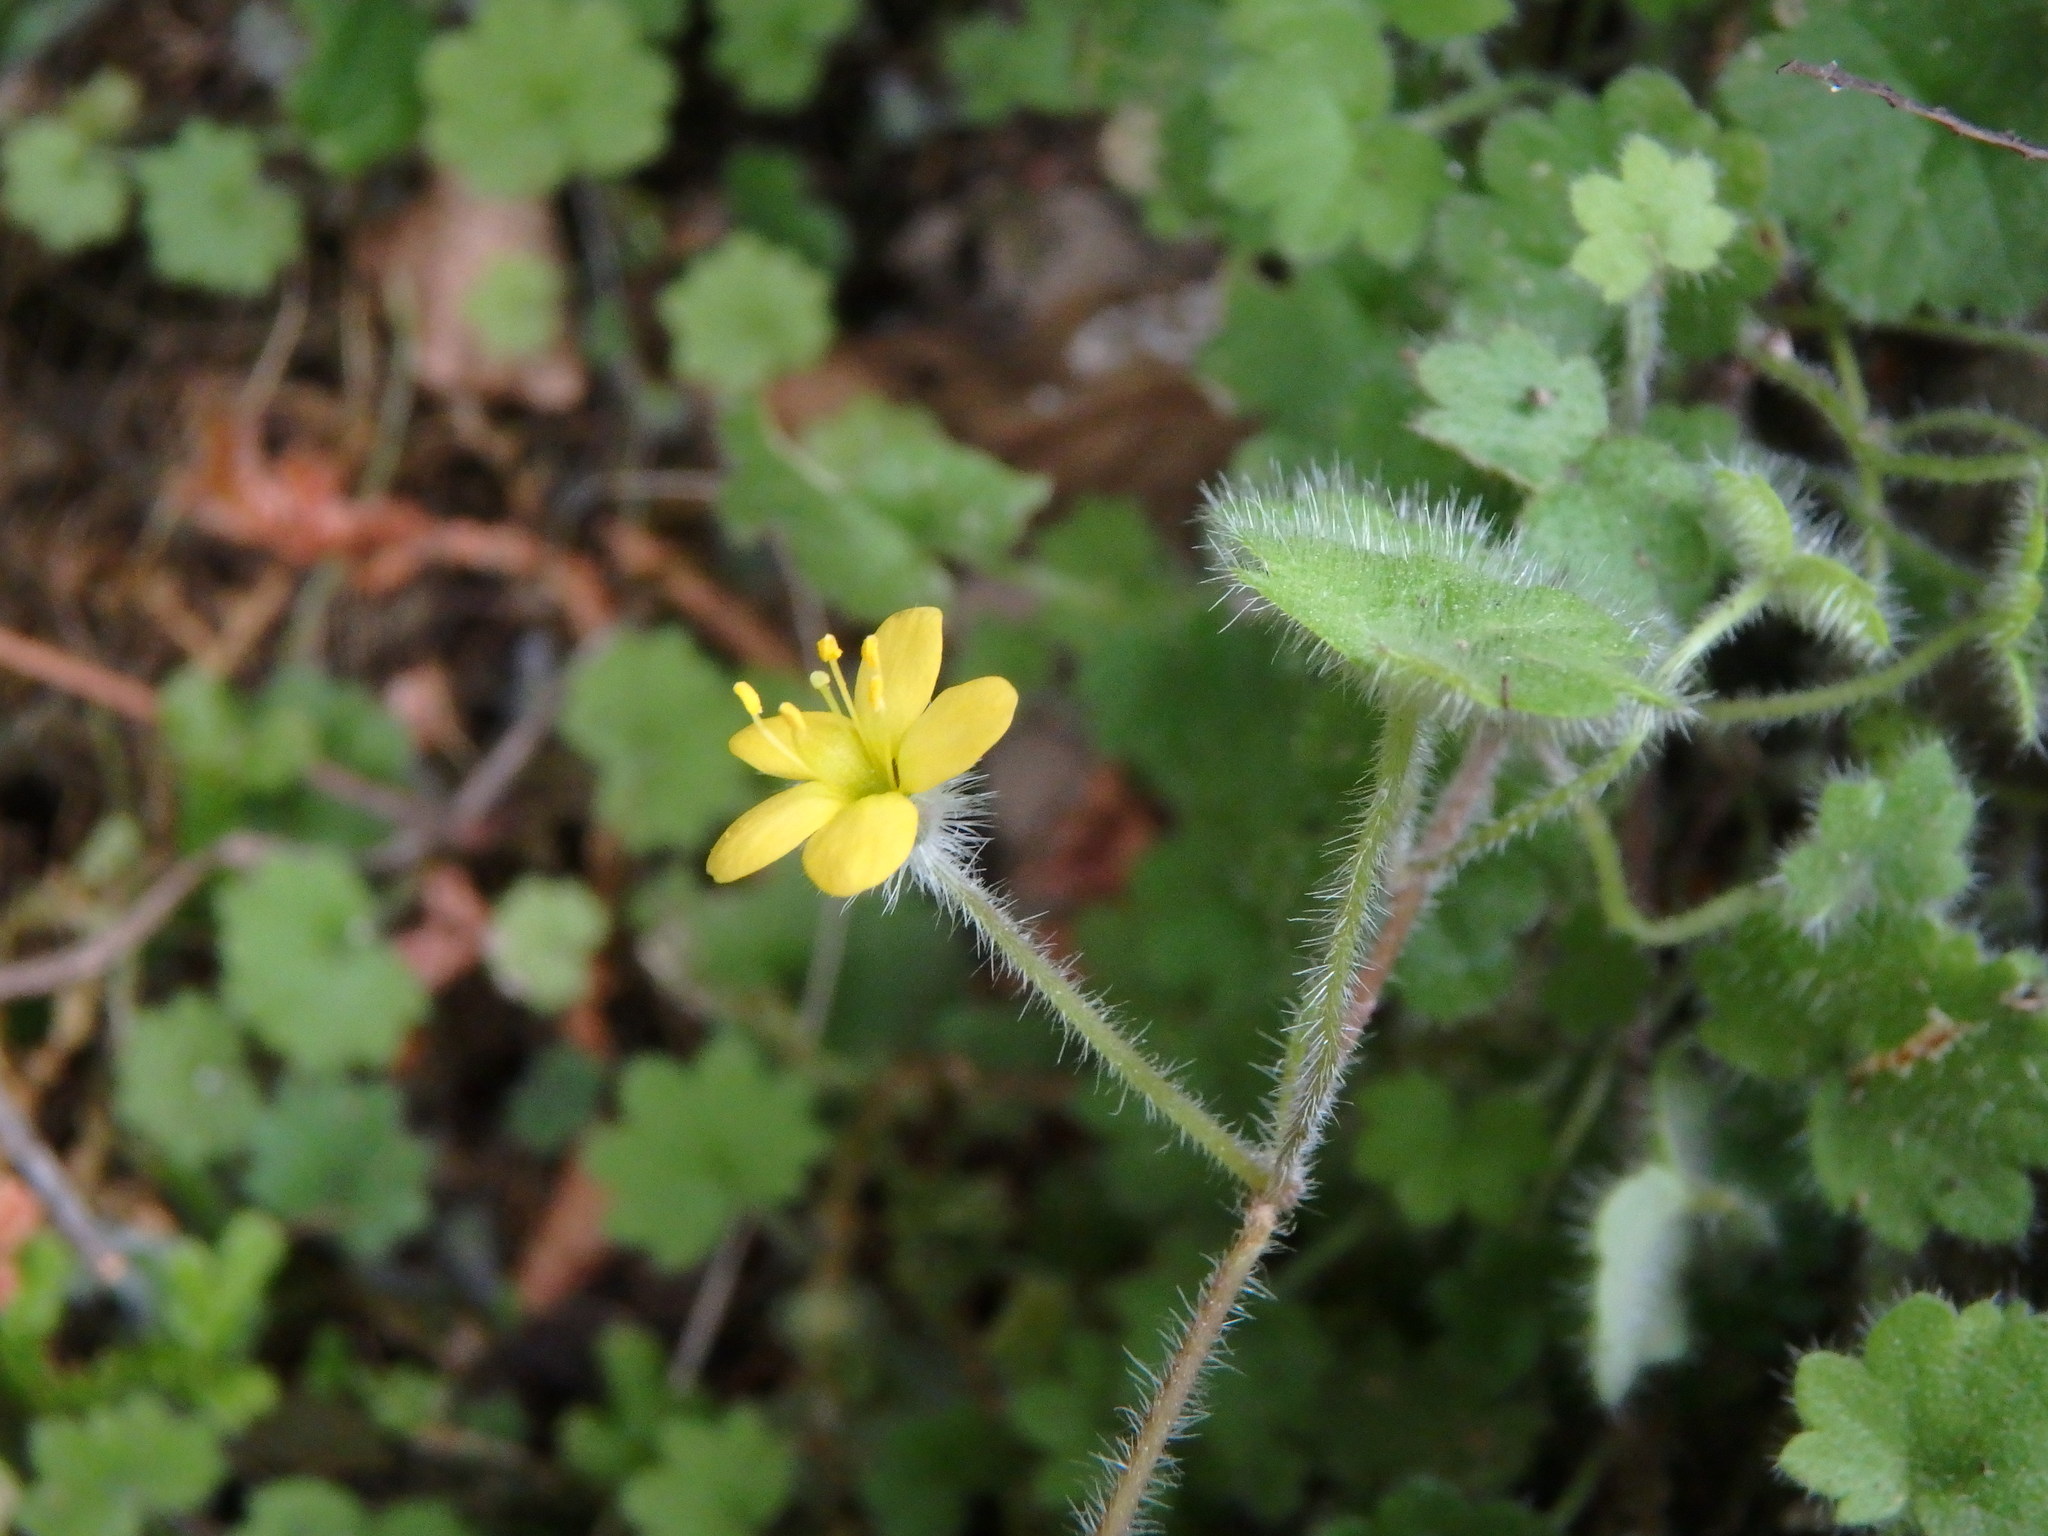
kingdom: Plantae
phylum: Tracheophyta
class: Magnoliopsida
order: Lamiales
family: Plantaginaceae
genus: Sibthorpia
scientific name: Sibthorpia africana
